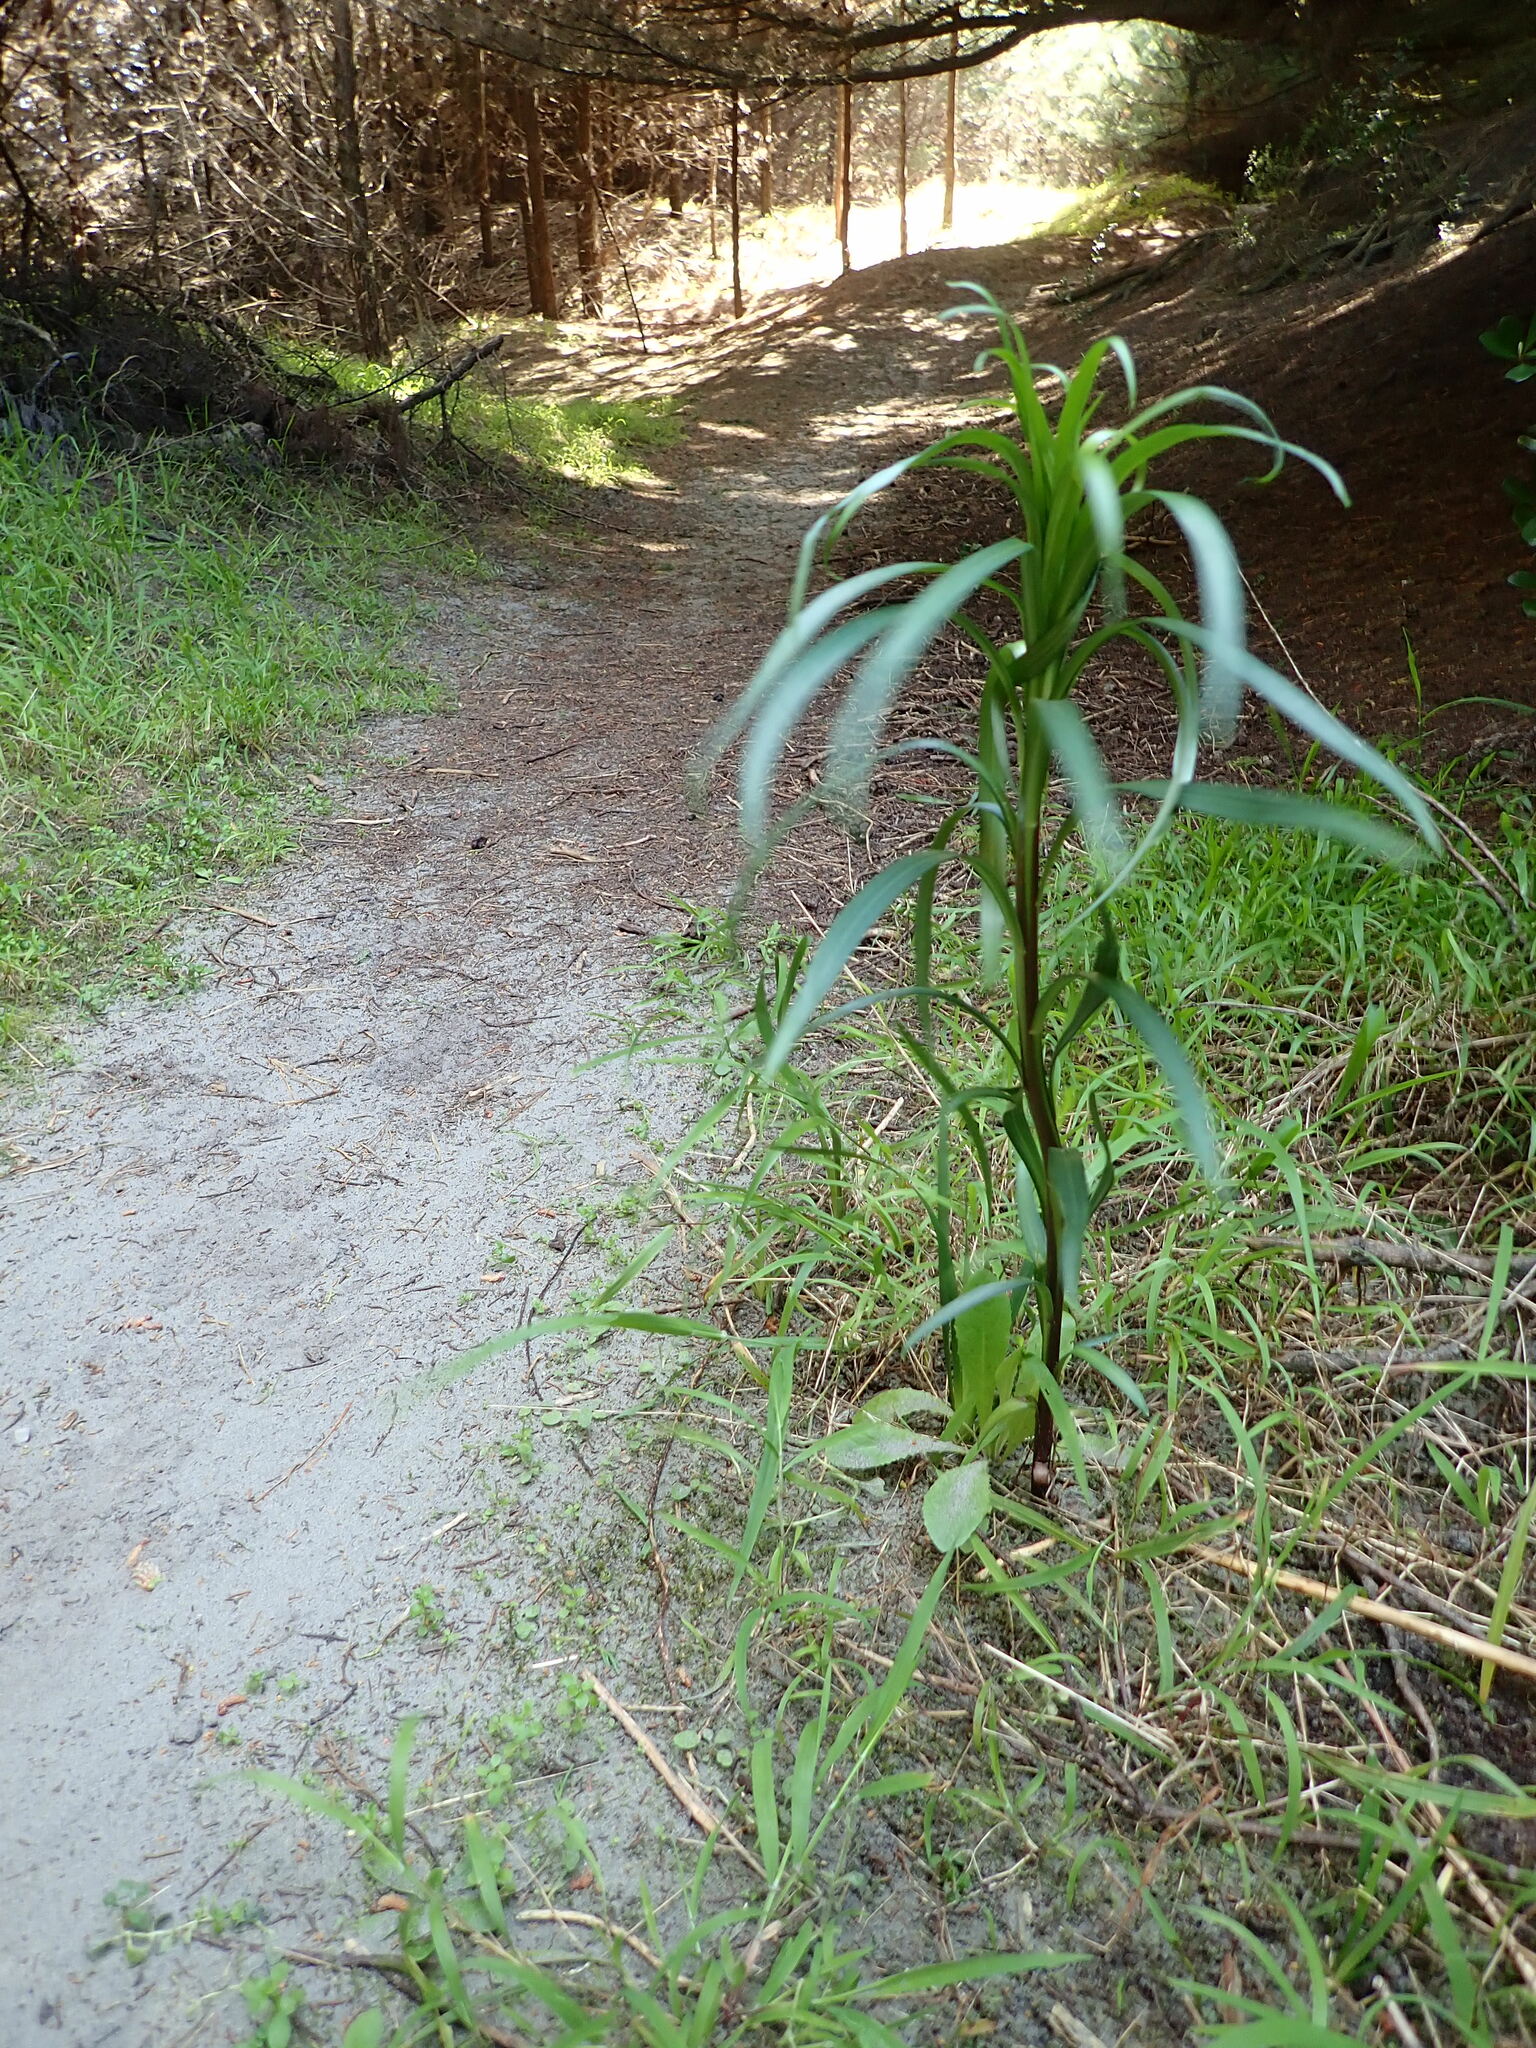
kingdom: Plantae
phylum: Tracheophyta
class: Liliopsida
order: Liliales
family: Liliaceae
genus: Lilium
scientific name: Lilium formosanum
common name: Formosa lily
